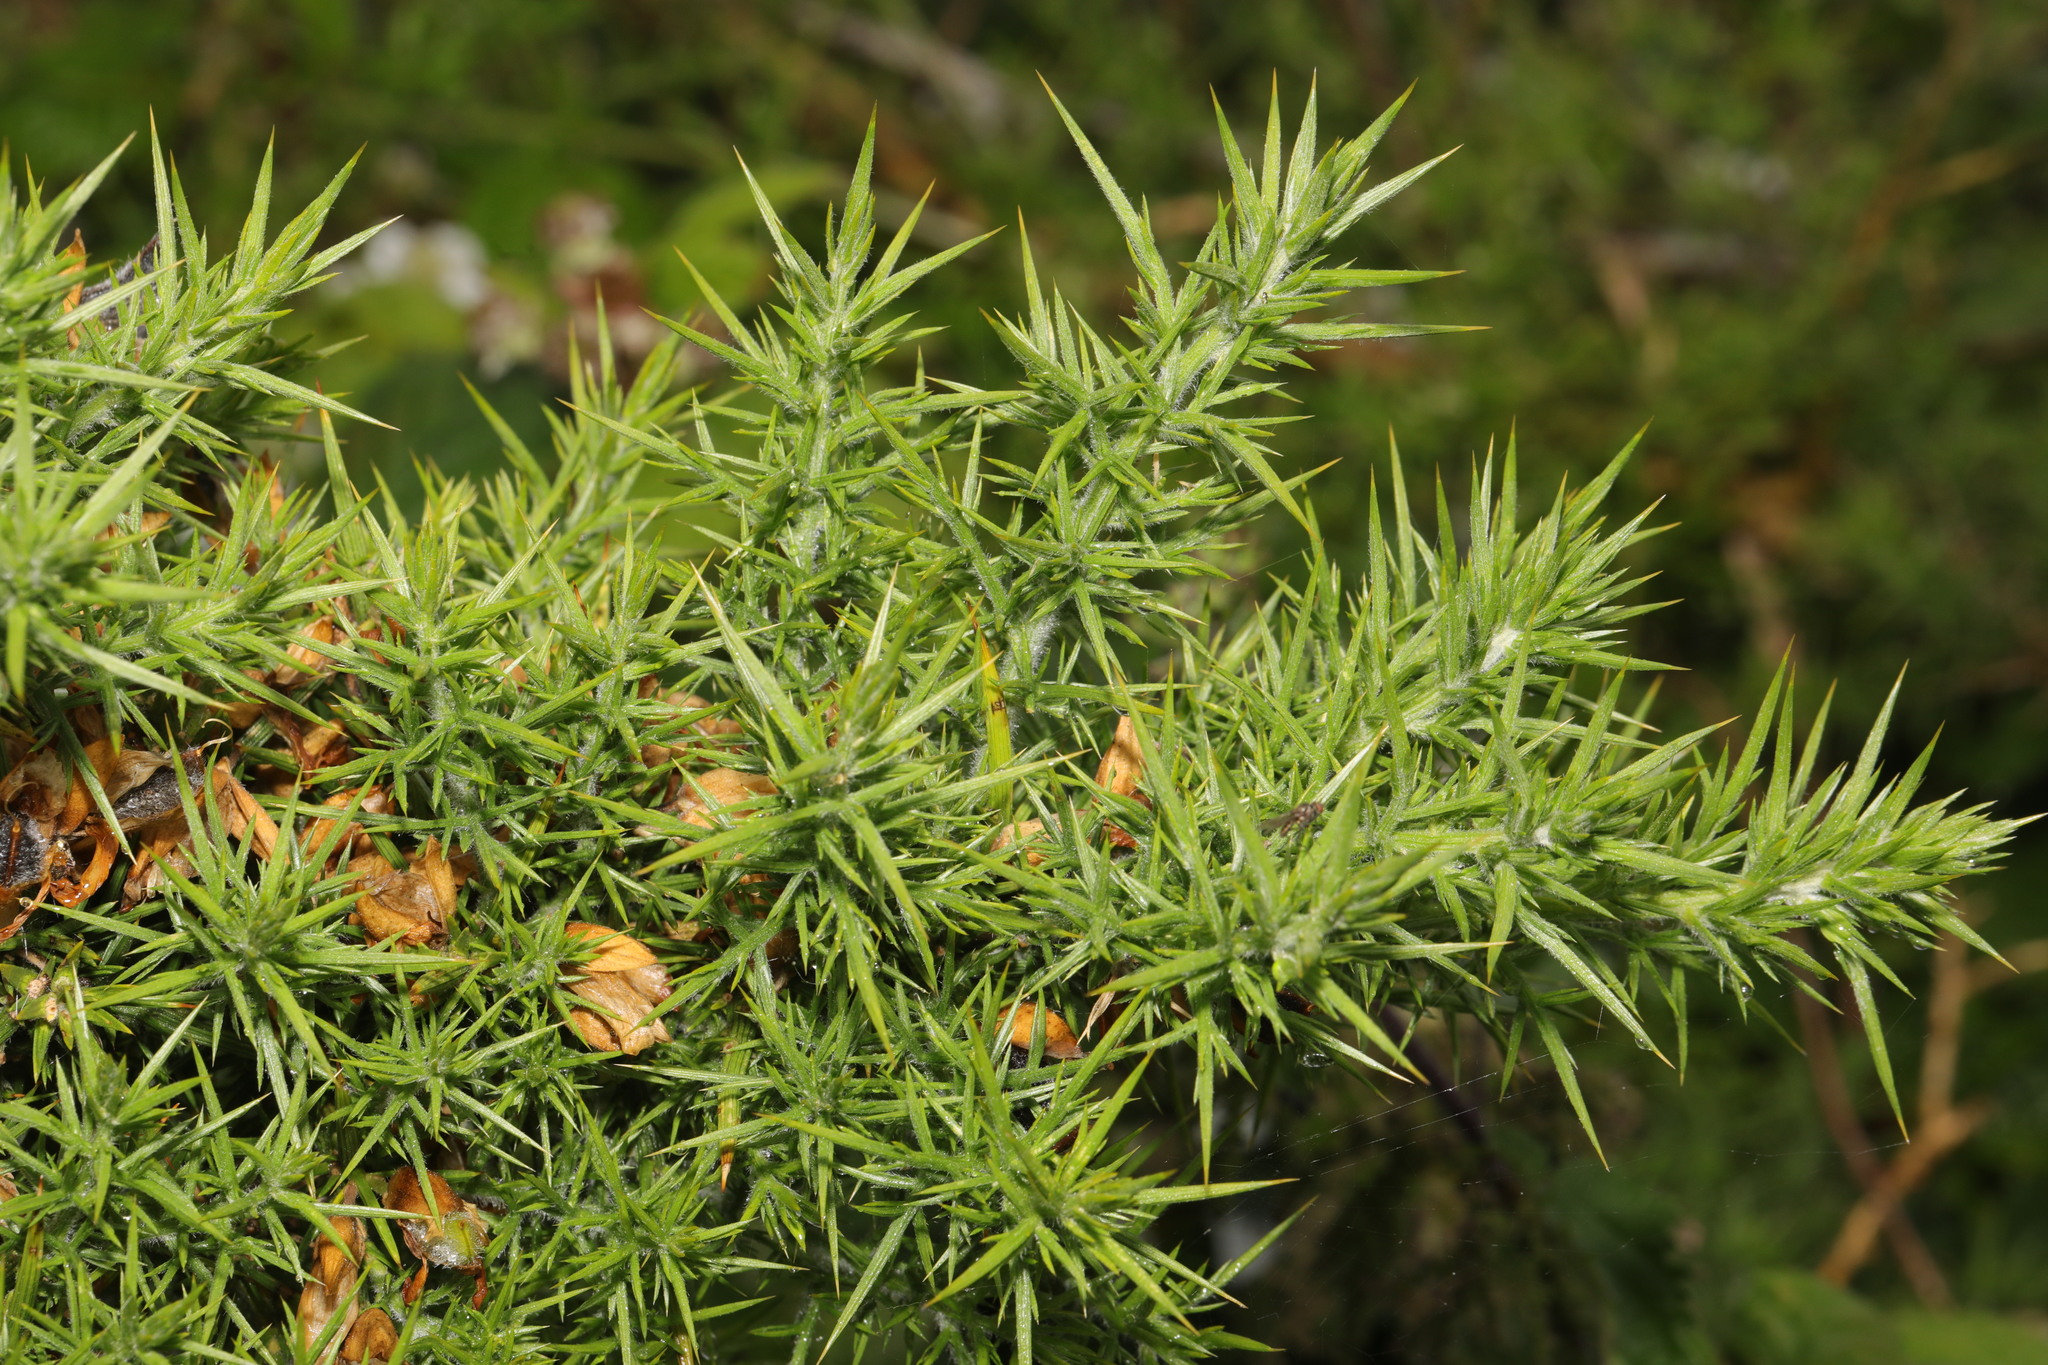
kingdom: Plantae
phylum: Tracheophyta
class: Magnoliopsida
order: Fabales
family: Fabaceae
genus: Ulex
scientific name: Ulex europaeus
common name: Common gorse
